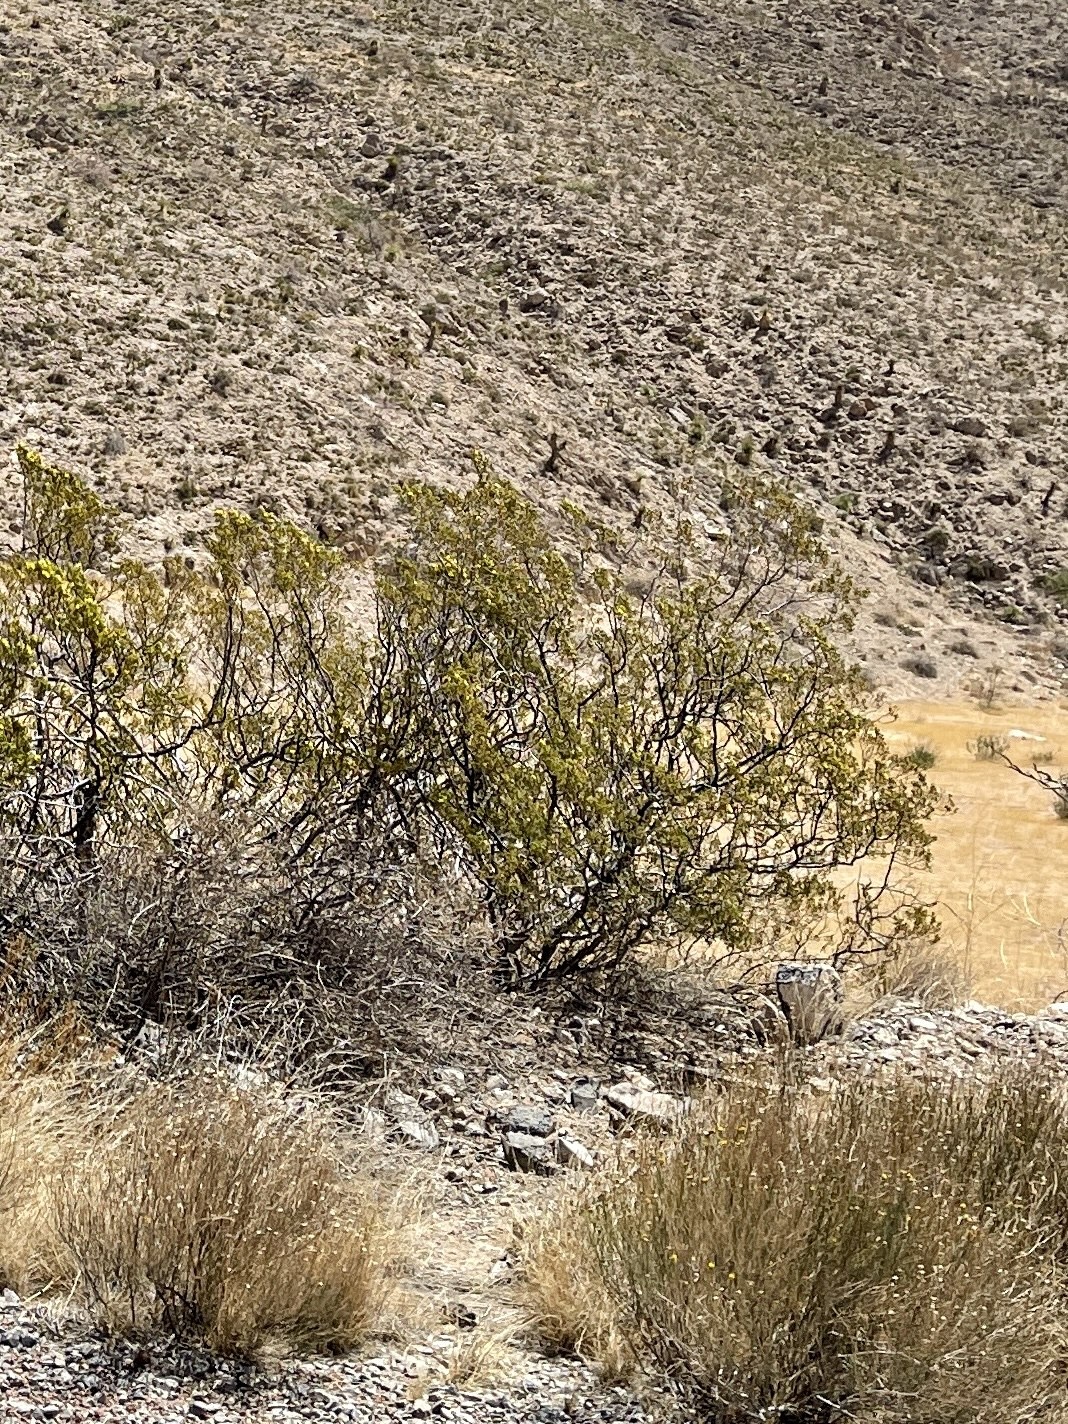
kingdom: Plantae
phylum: Tracheophyta
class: Magnoliopsida
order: Zygophyllales
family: Zygophyllaceae
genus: Larrea
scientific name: Larrea tridentata
